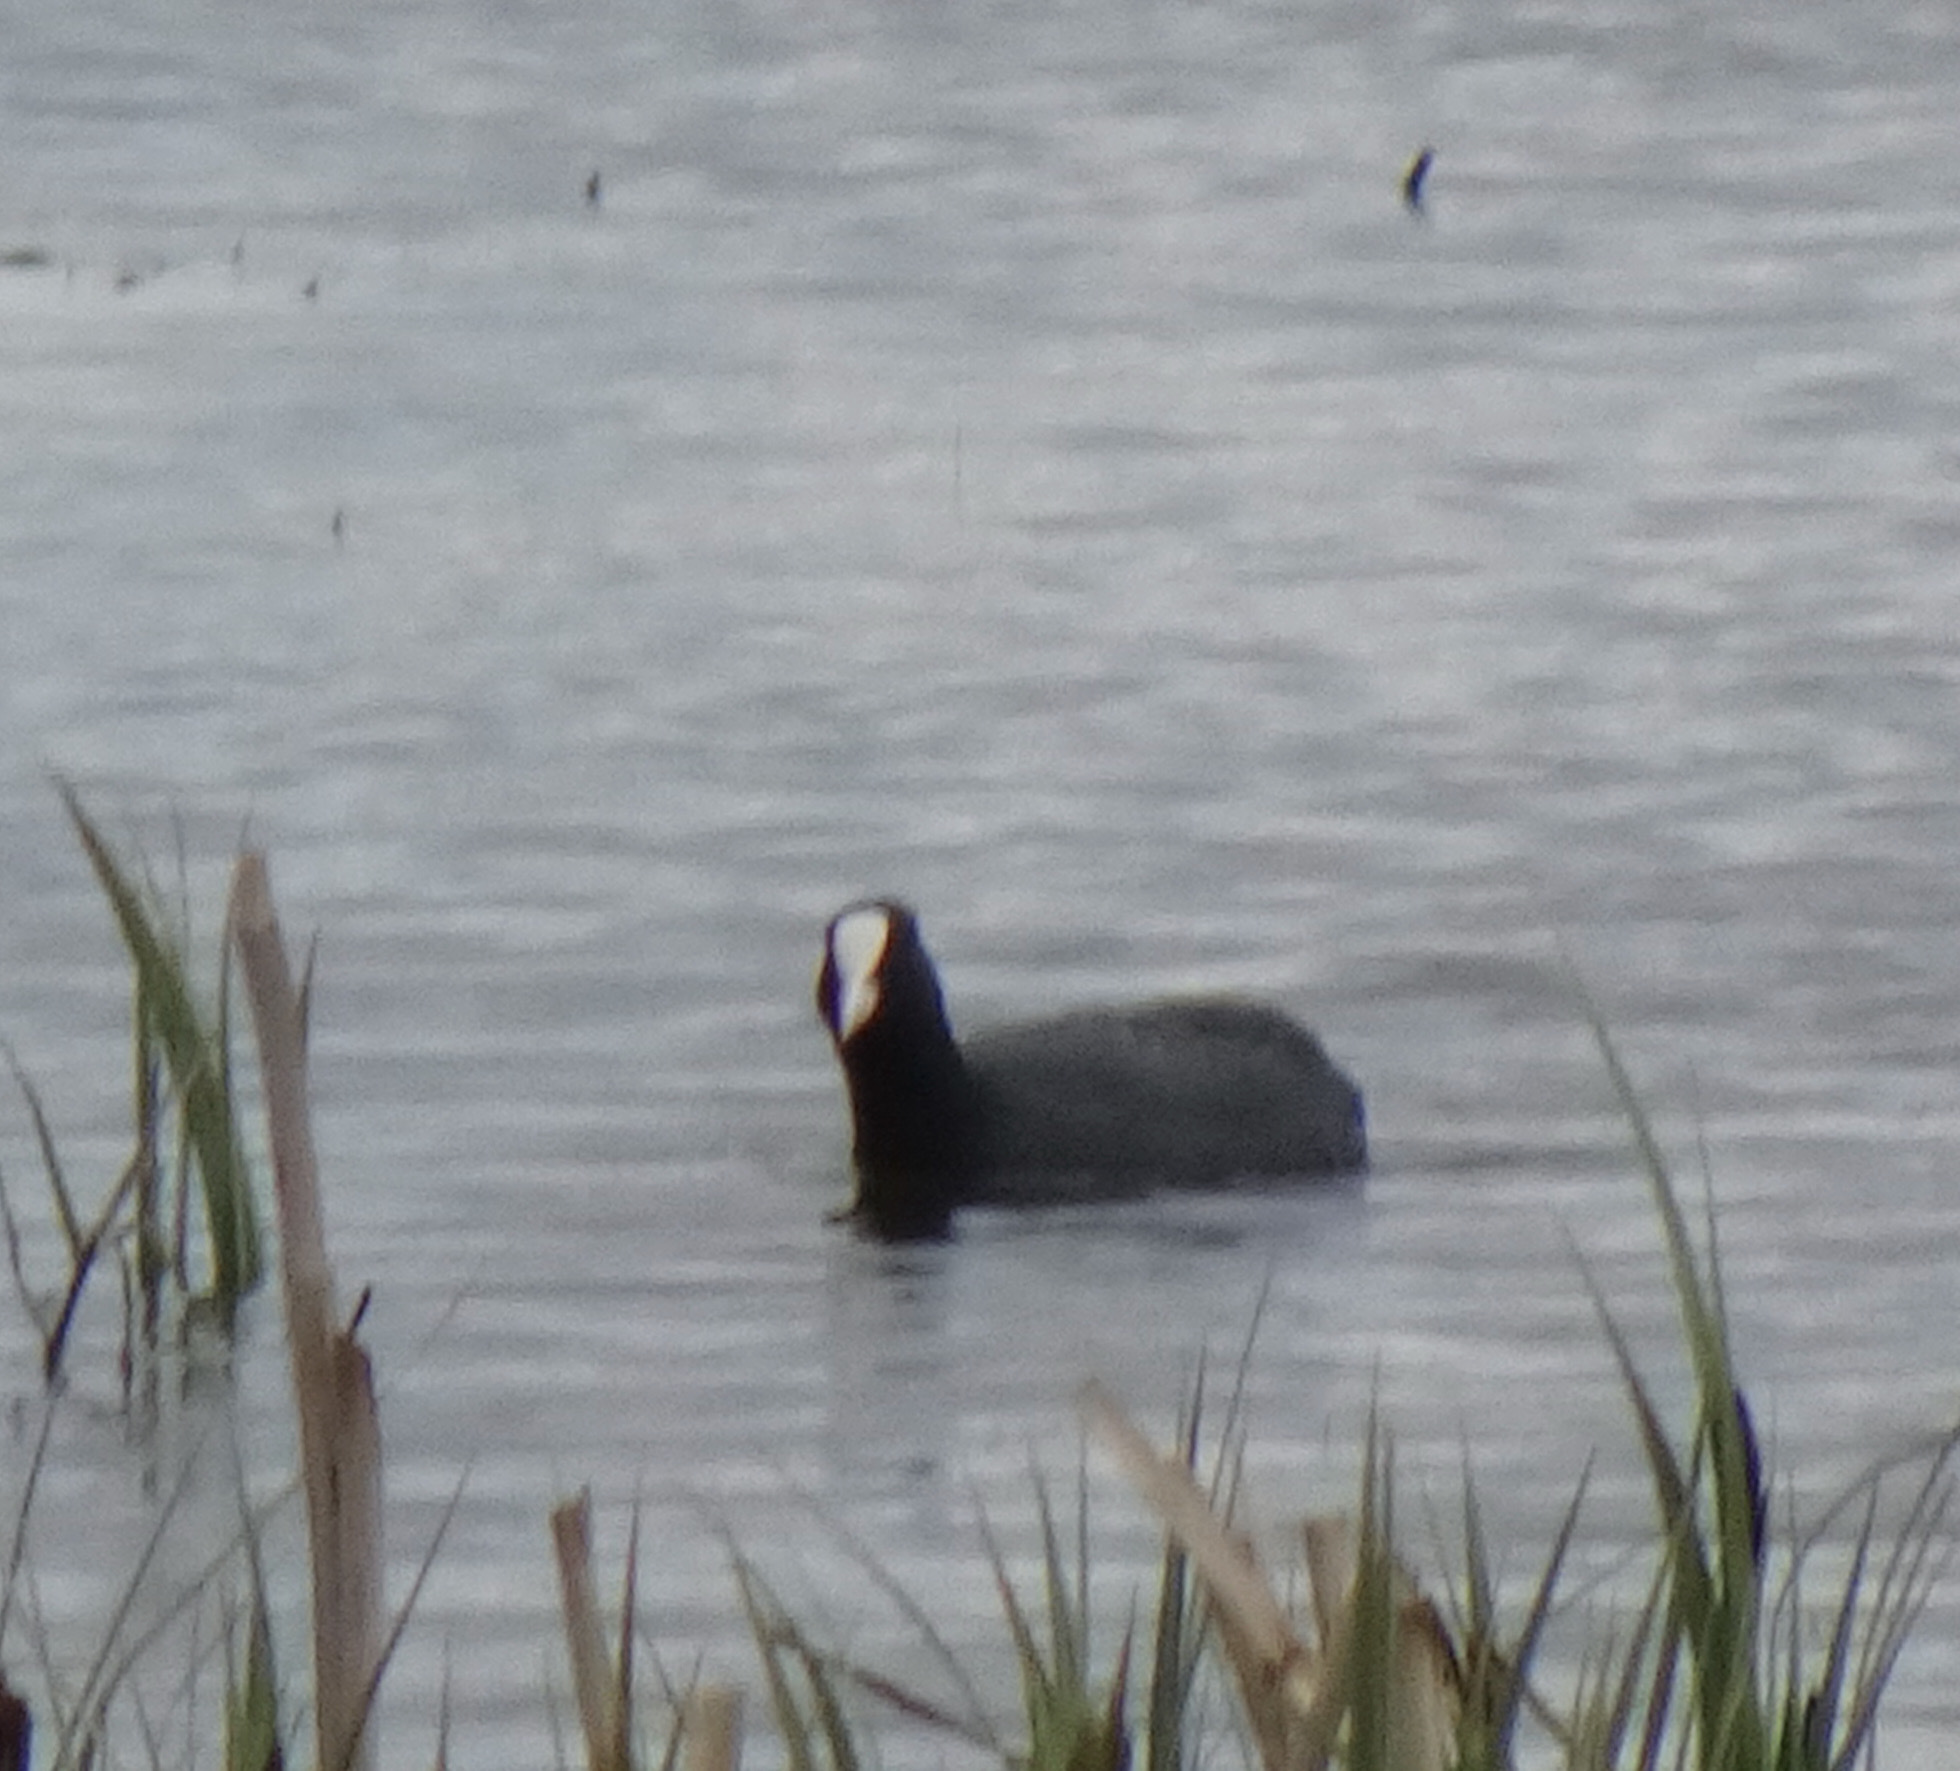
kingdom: Animalia
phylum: Chordata
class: Aves
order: Gruiformes
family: Rallidae
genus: Fulica
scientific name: Fulica atra
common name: Eurasian coot
